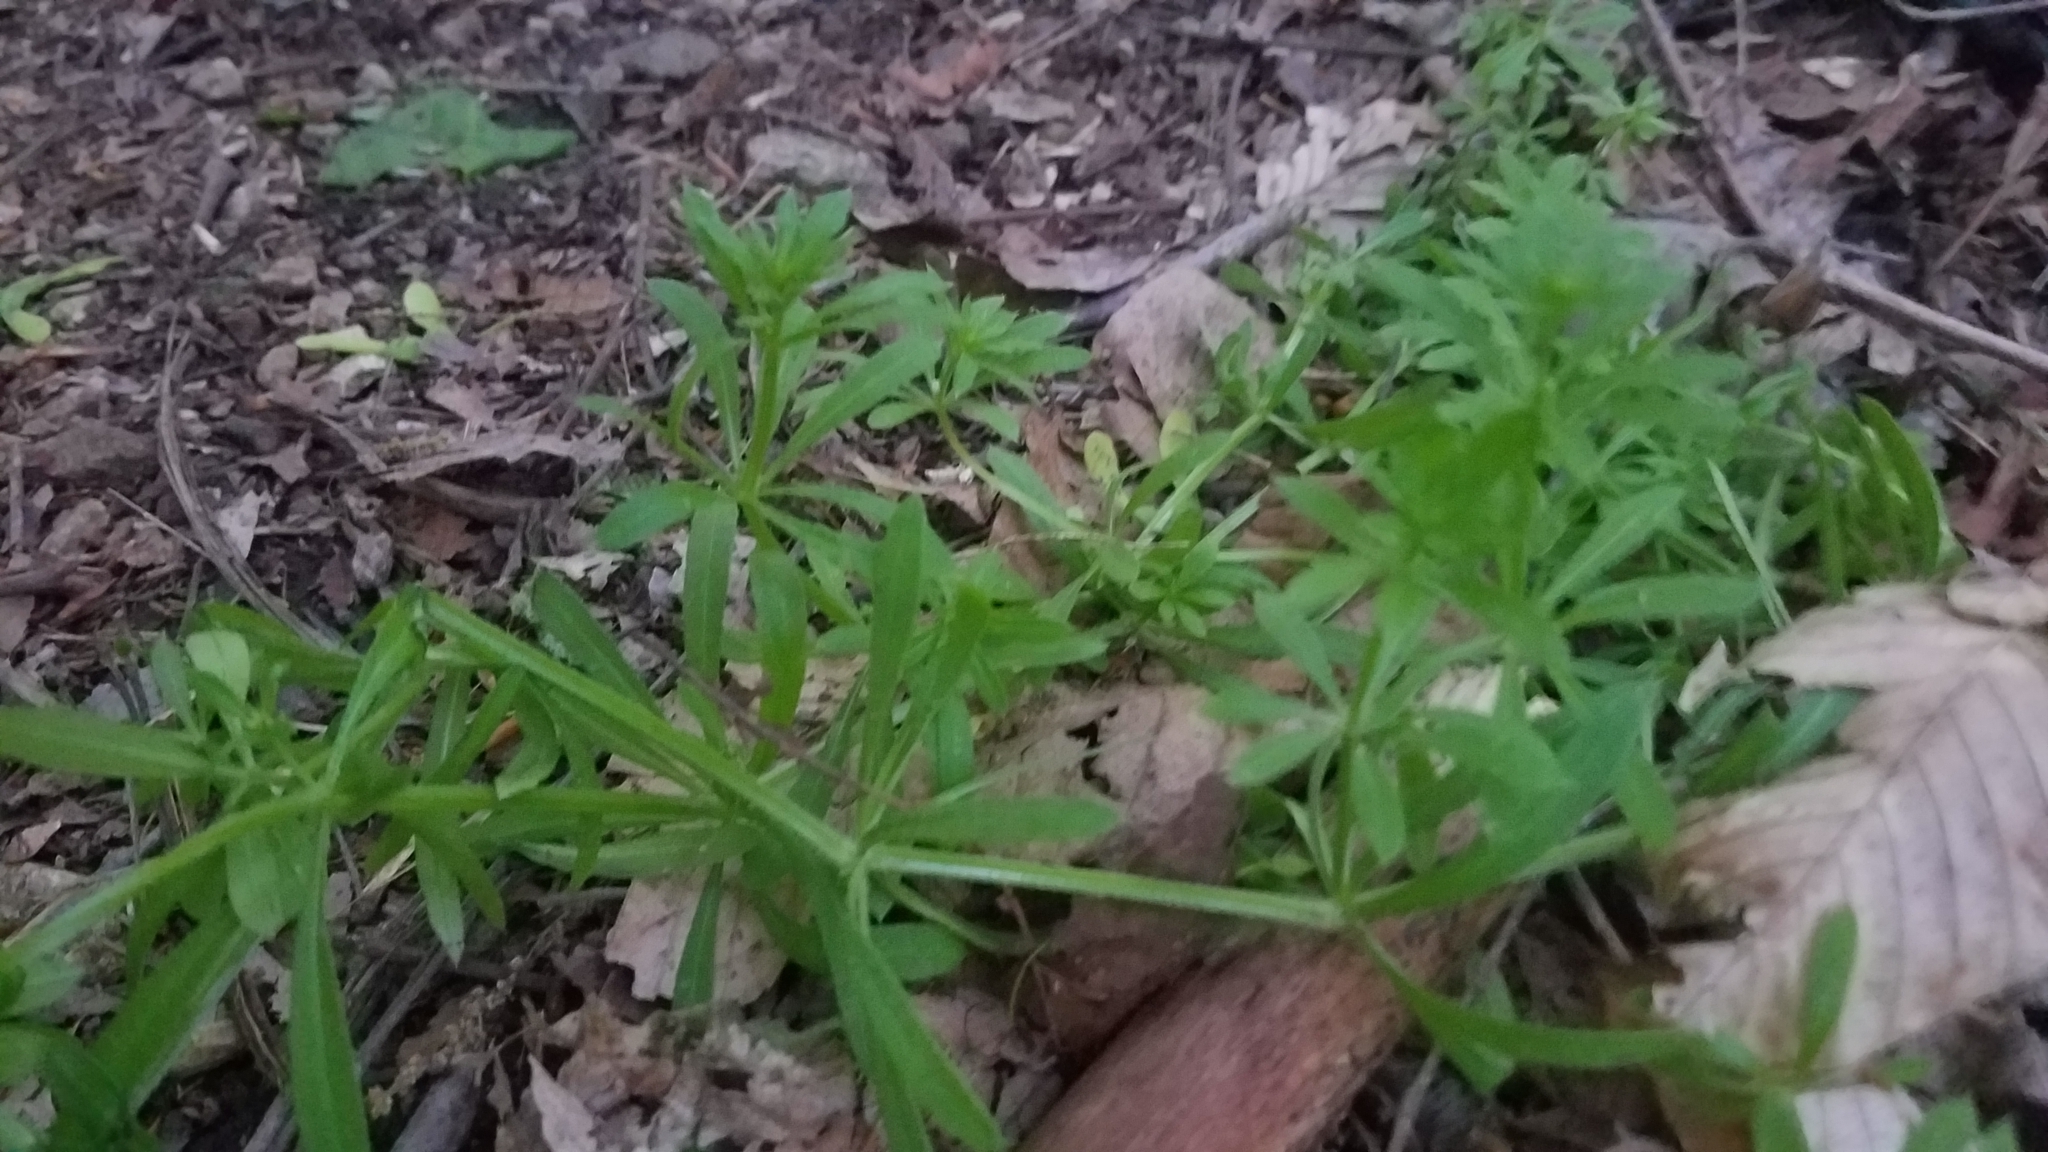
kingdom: Plantae
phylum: Tracheophyta
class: Magnoliopsida
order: Gentianales
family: Rubiaceae
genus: Galium
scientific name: Galium aparine
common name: Cleavers
